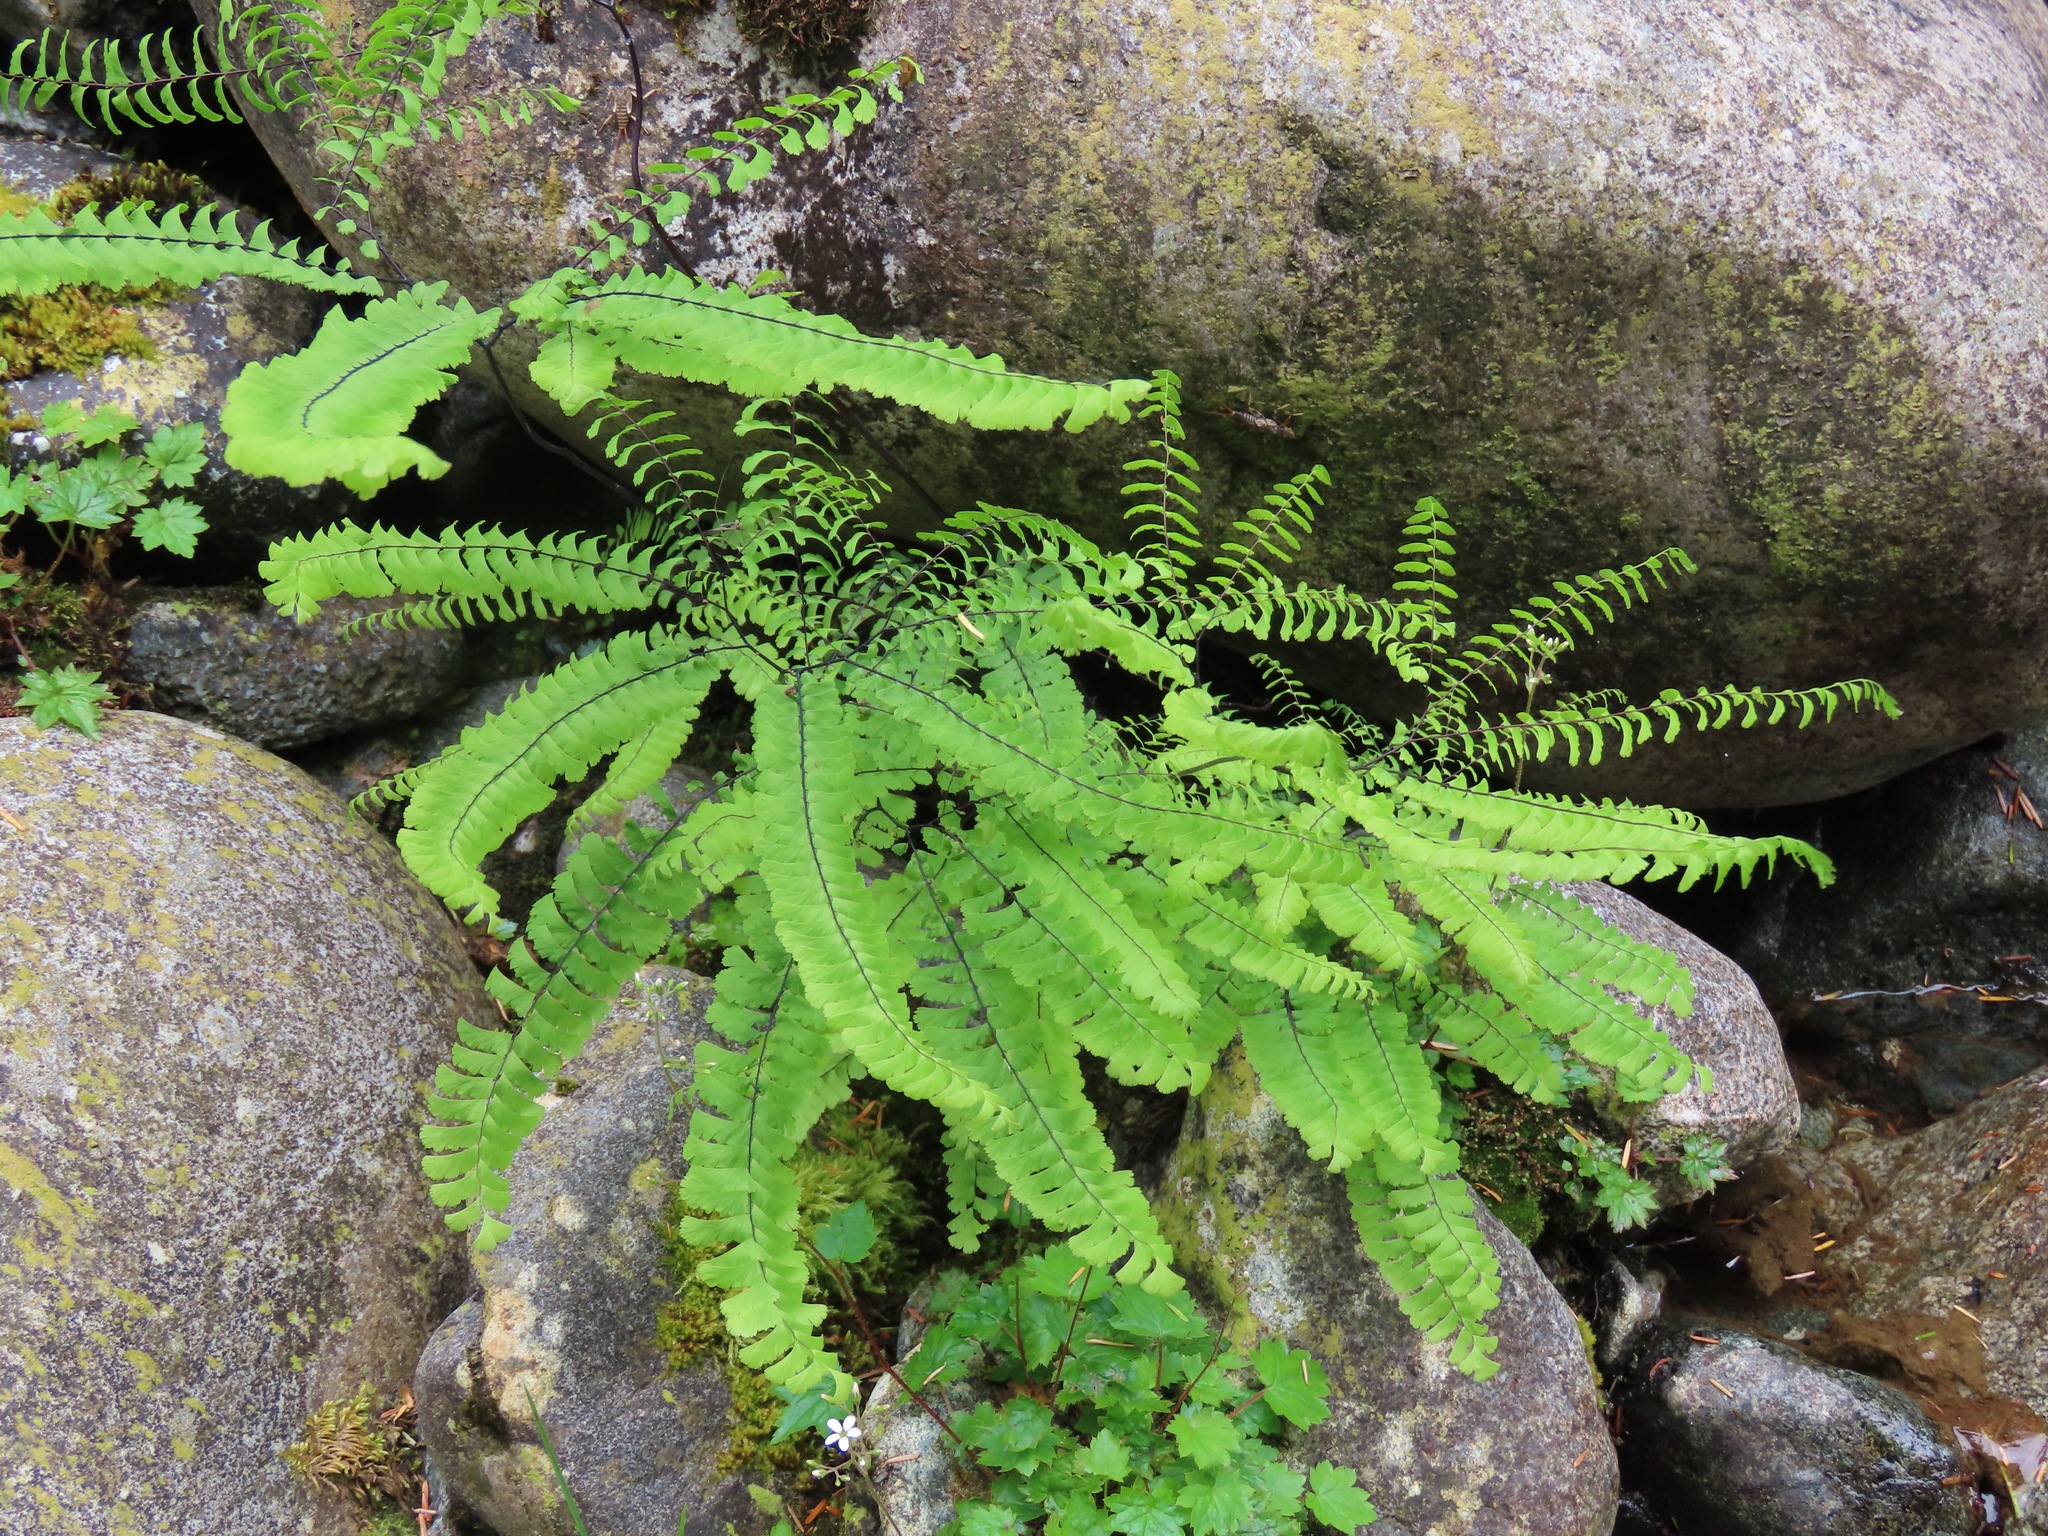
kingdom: Plantae
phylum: Tracheophyta
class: Polypodiopsida
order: Polypodiales
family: Pteridaceae
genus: Adiantum
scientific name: Adiantum aleuticum
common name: Aleutian maidenhair fern
